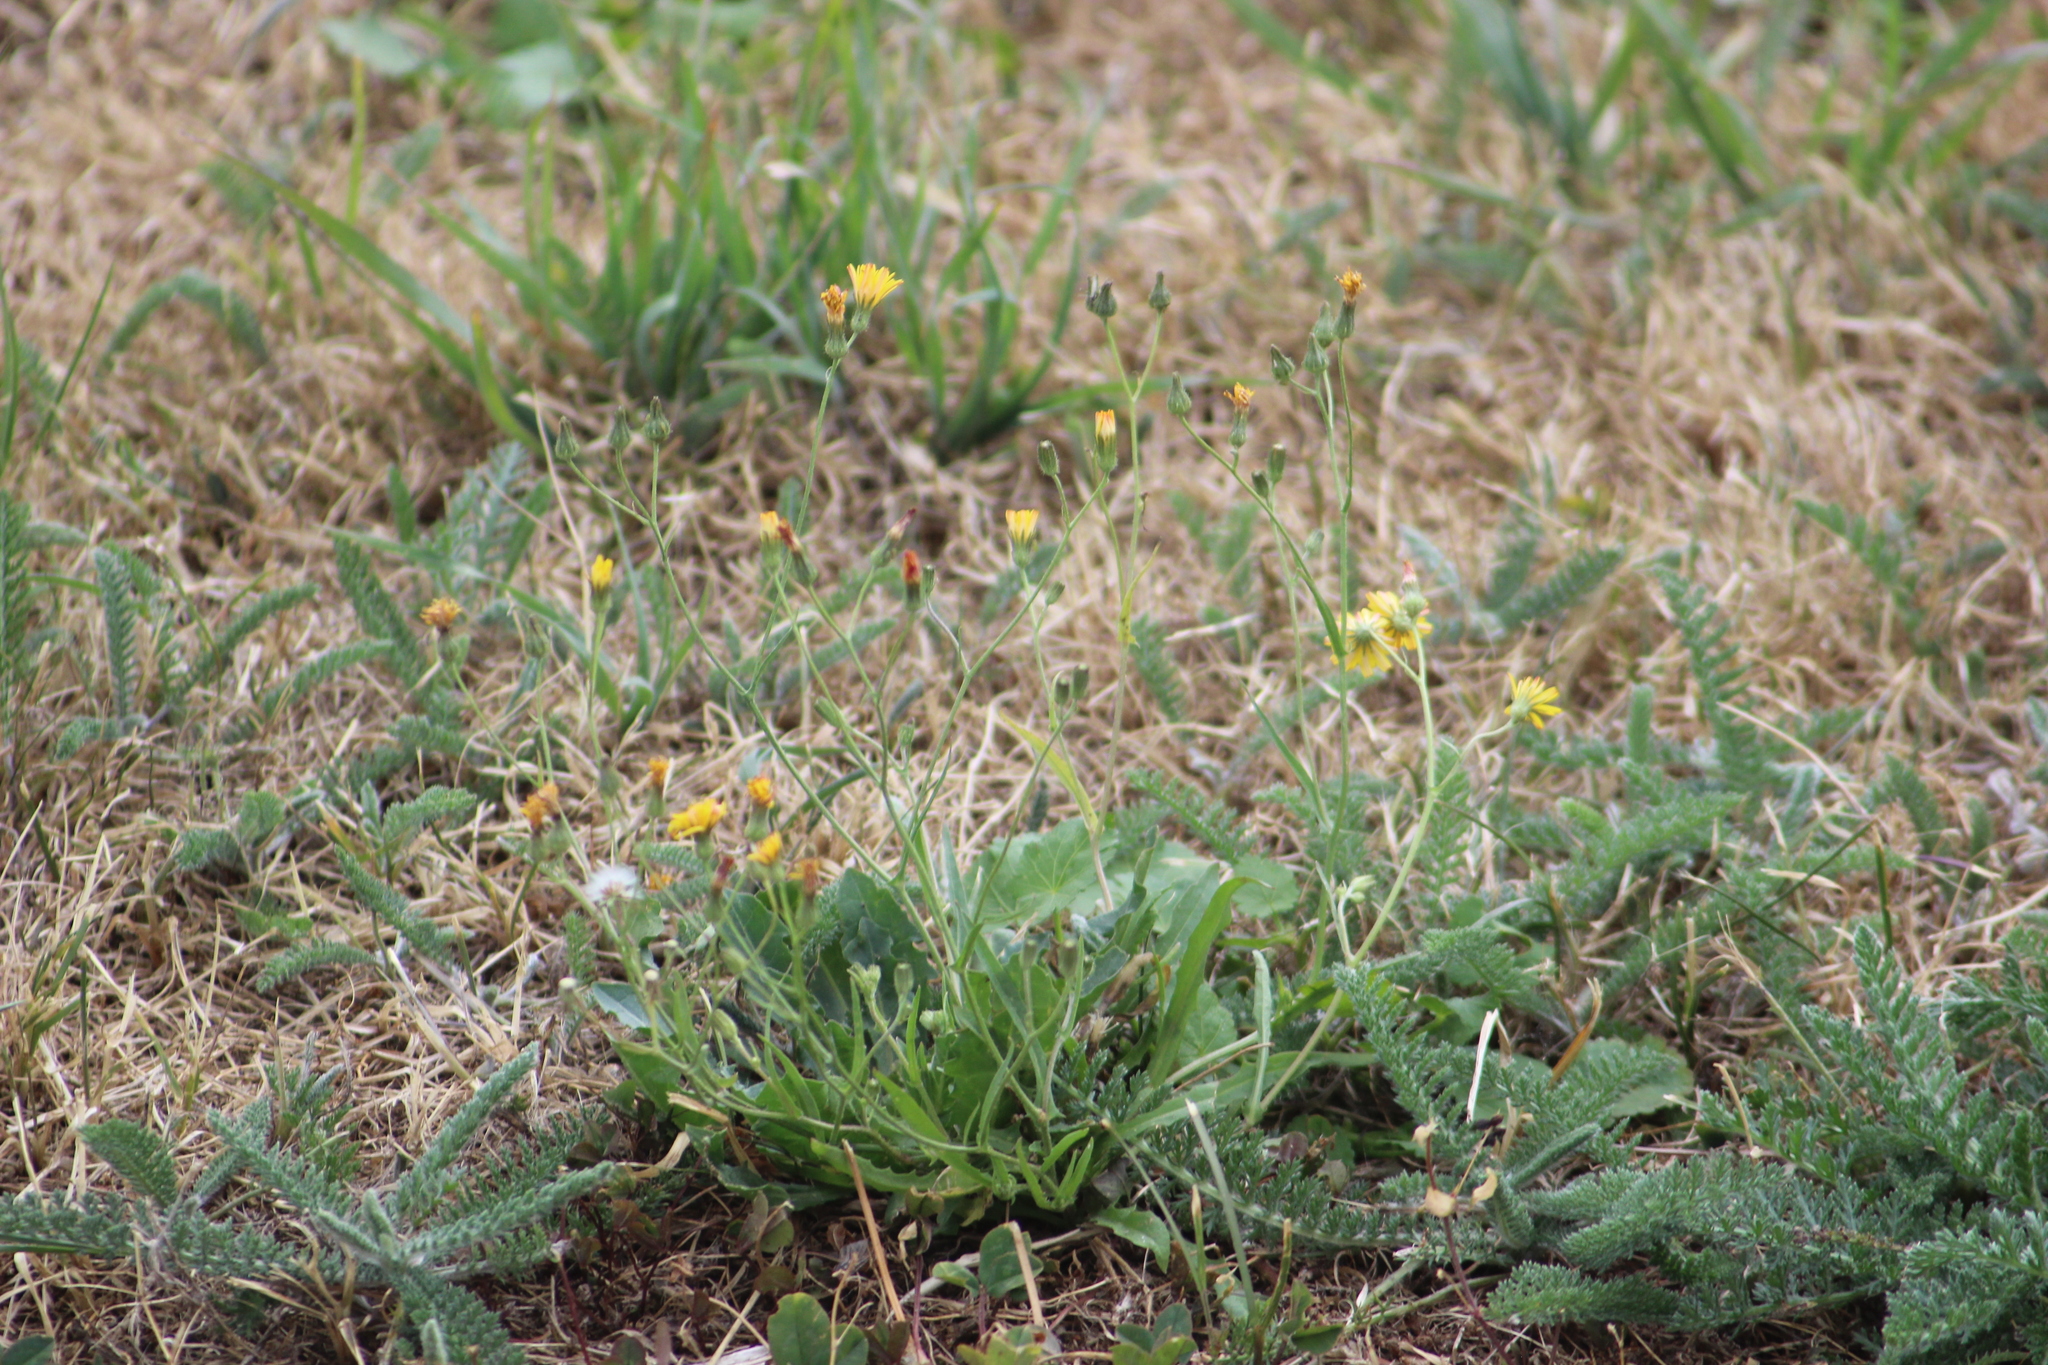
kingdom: Plantae
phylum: Tracheophyta
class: Magnoliopsida
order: Asterales
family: Asteraceae
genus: Crepis
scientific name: Crepis capillaris
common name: Smooth hawksbeard
